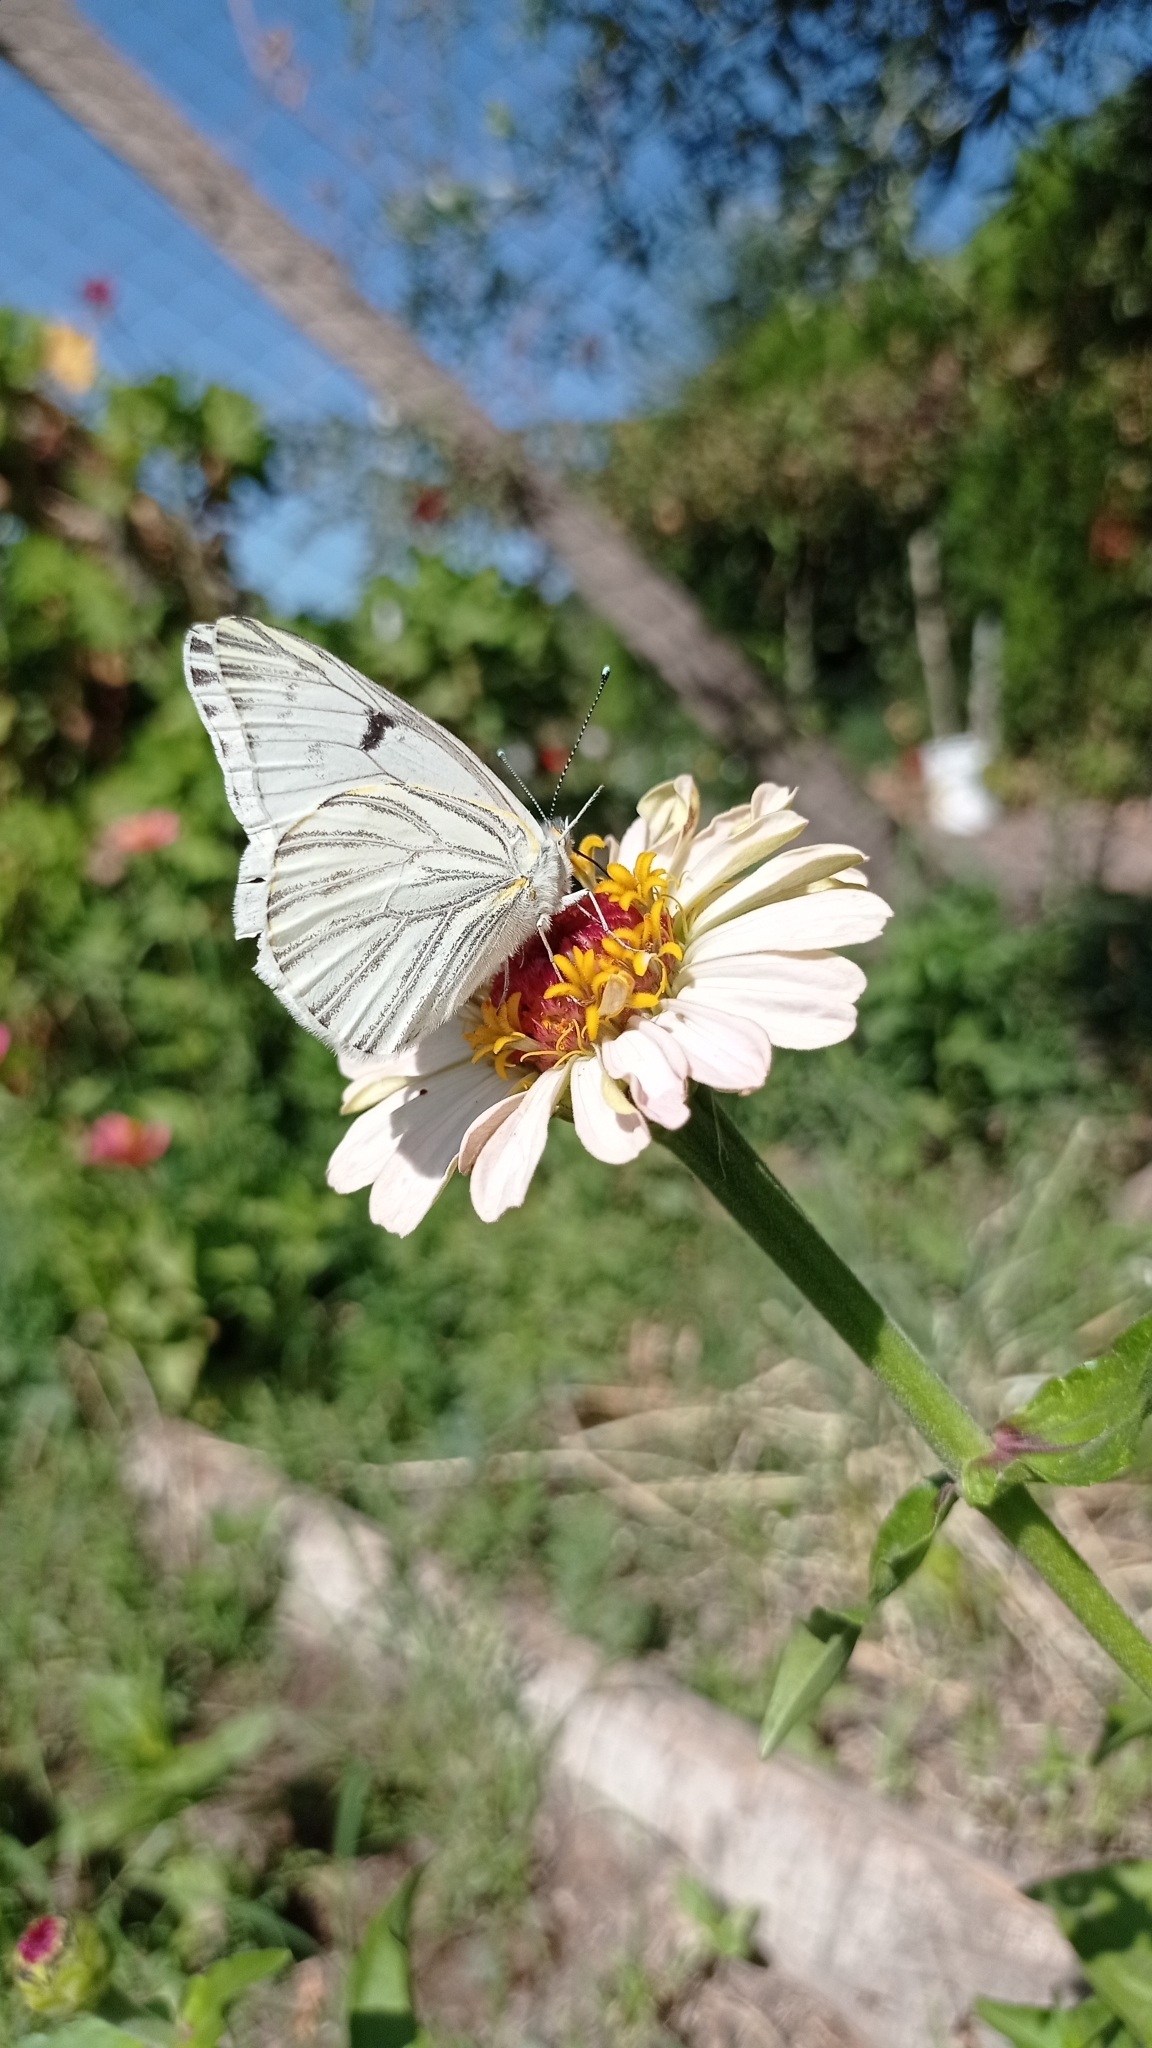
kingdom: Animalia
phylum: Arthropoda
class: Insecta
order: Lepidoptera
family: Pieridae
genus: Tatochila
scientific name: Tatochila mercedis
